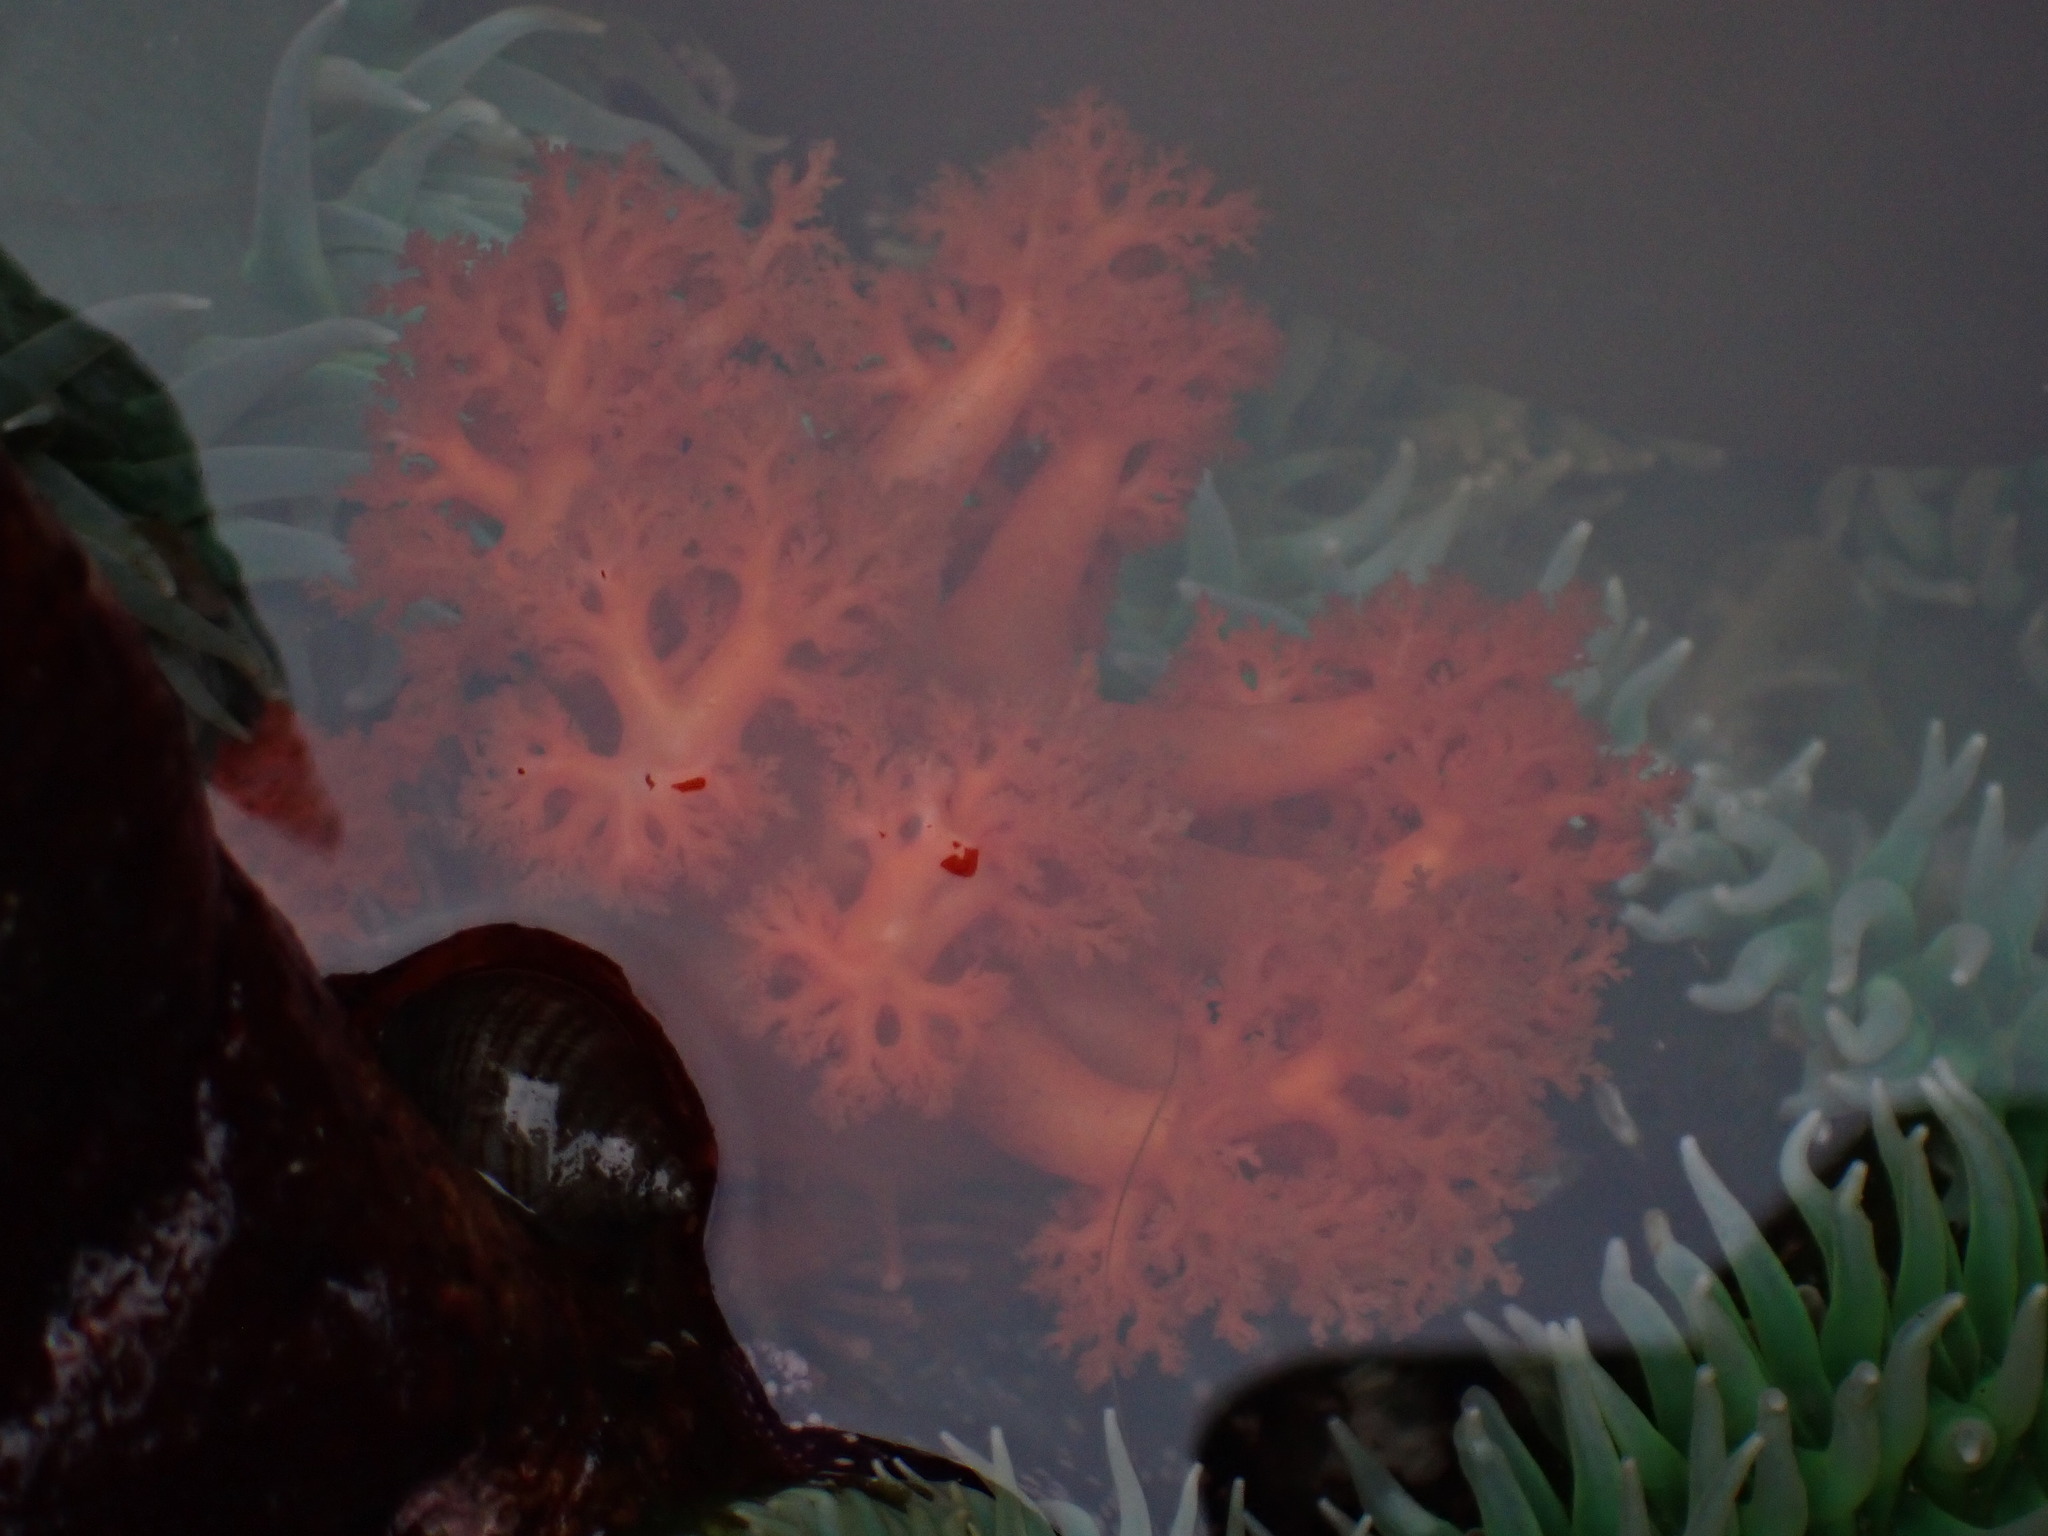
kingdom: Animalia
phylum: Echinodermata
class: Holothuroidea
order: Dendrochirotida
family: Cucumariidae
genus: Cucumaria
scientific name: Cucumaria miniata
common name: Orange sea cucumber
